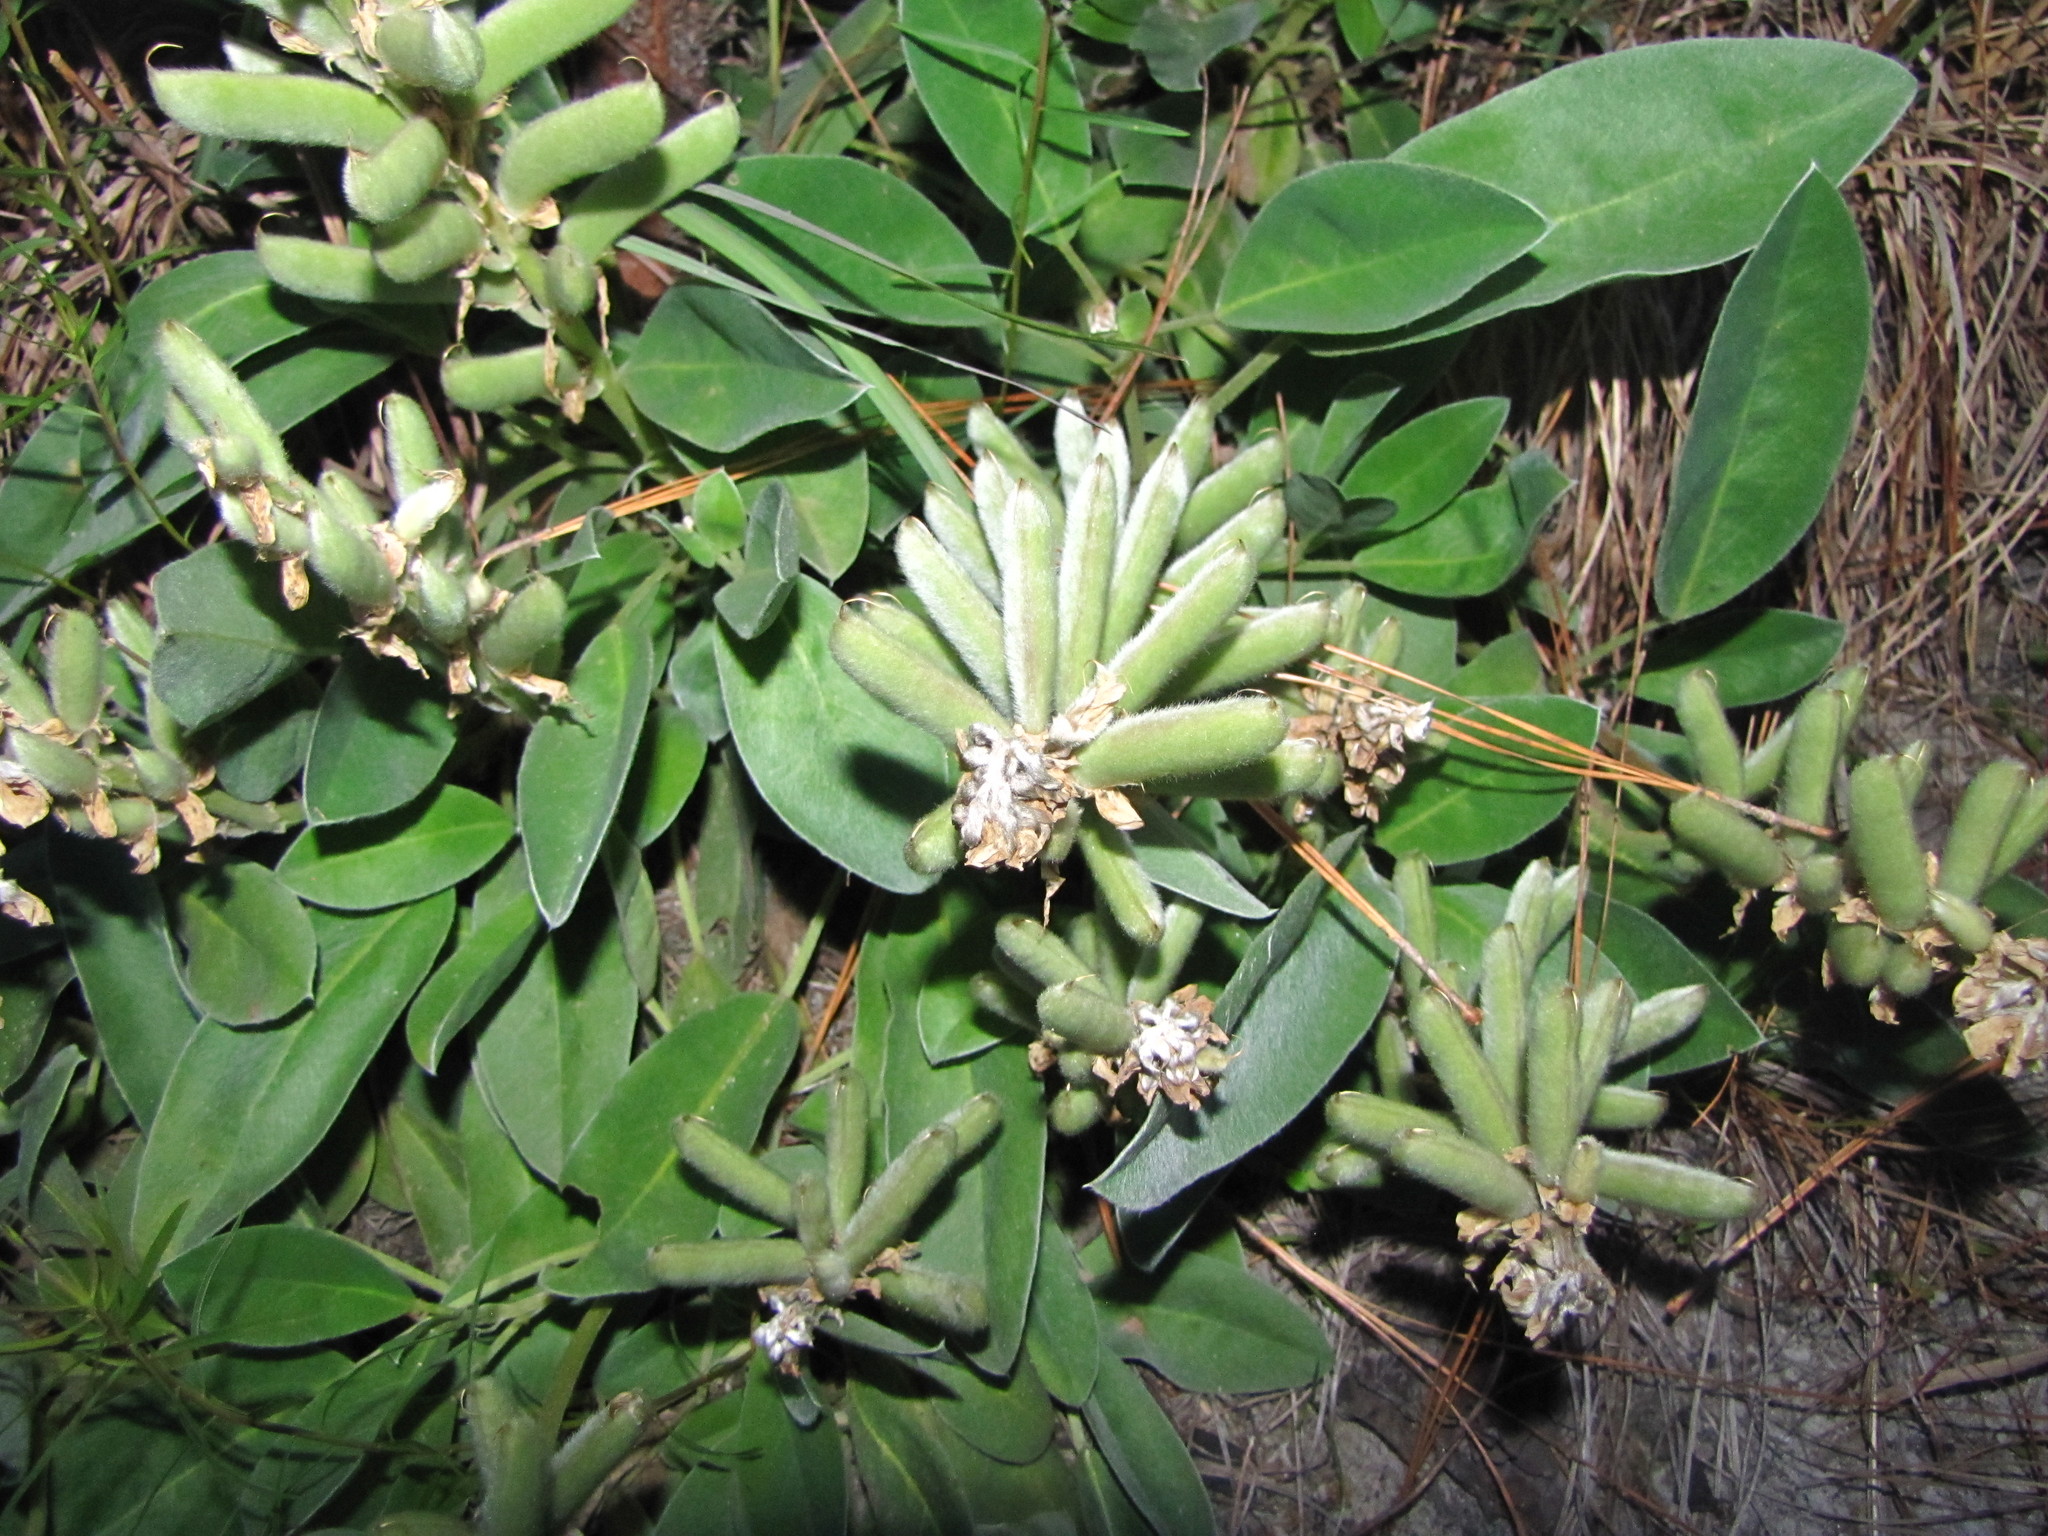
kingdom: Plantae
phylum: Tracheophyta
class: Magnoliopsida
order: Fabales
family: Fabaceae
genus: Lupinus
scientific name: Lupinus diffusus
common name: Oak ridge lupine
